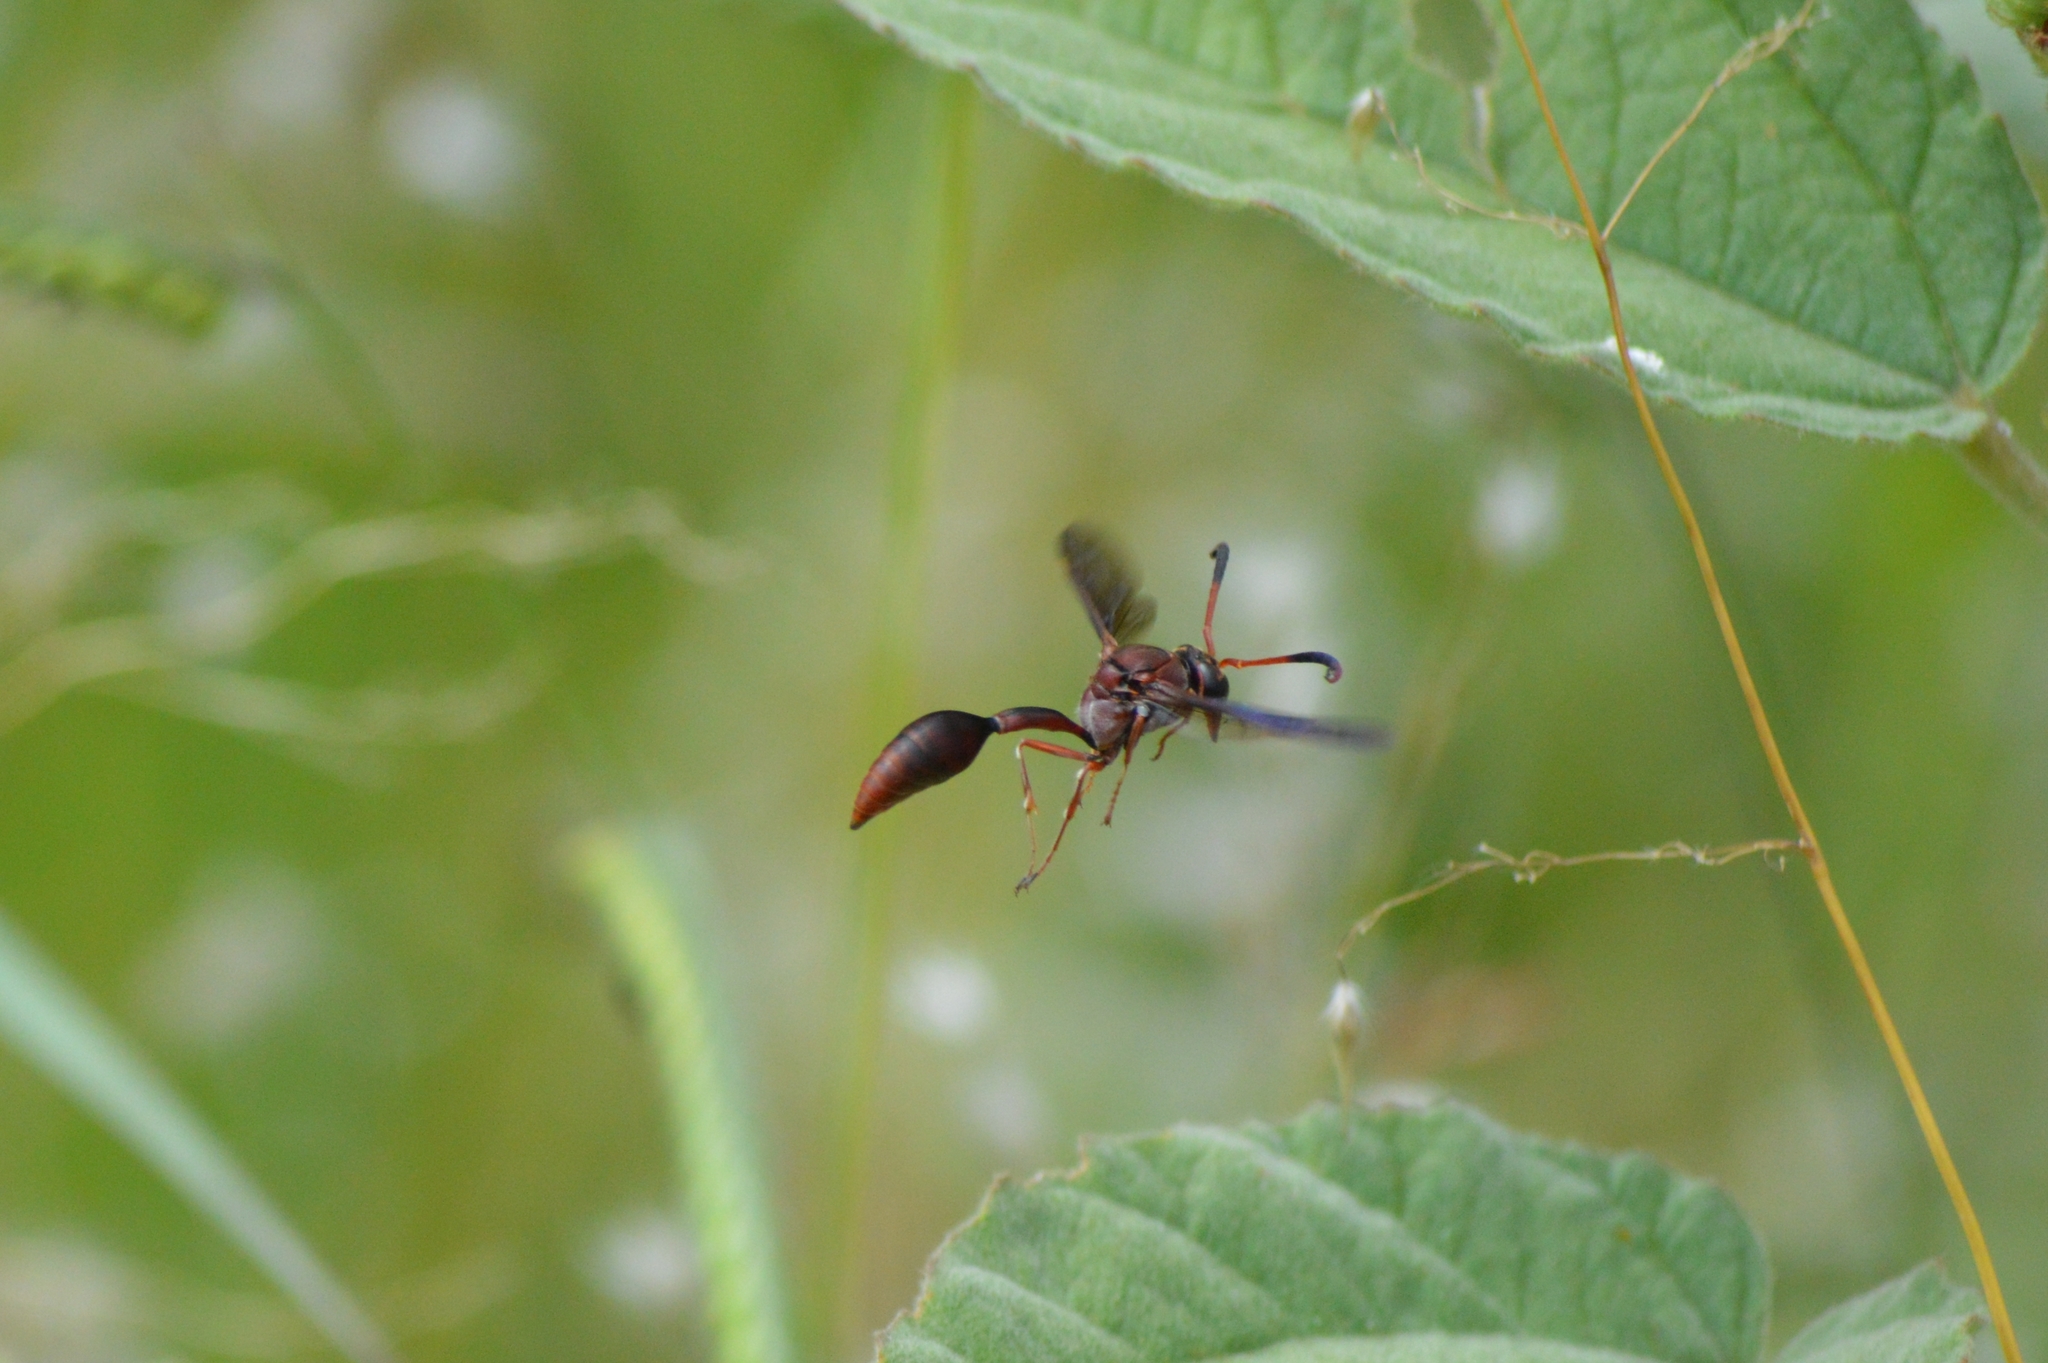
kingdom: Animalia
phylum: Arthropoda
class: Insecta
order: Hymenoptera
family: Eumenidae
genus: Zeta
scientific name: Zeta argillaceum
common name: Potter wasp
